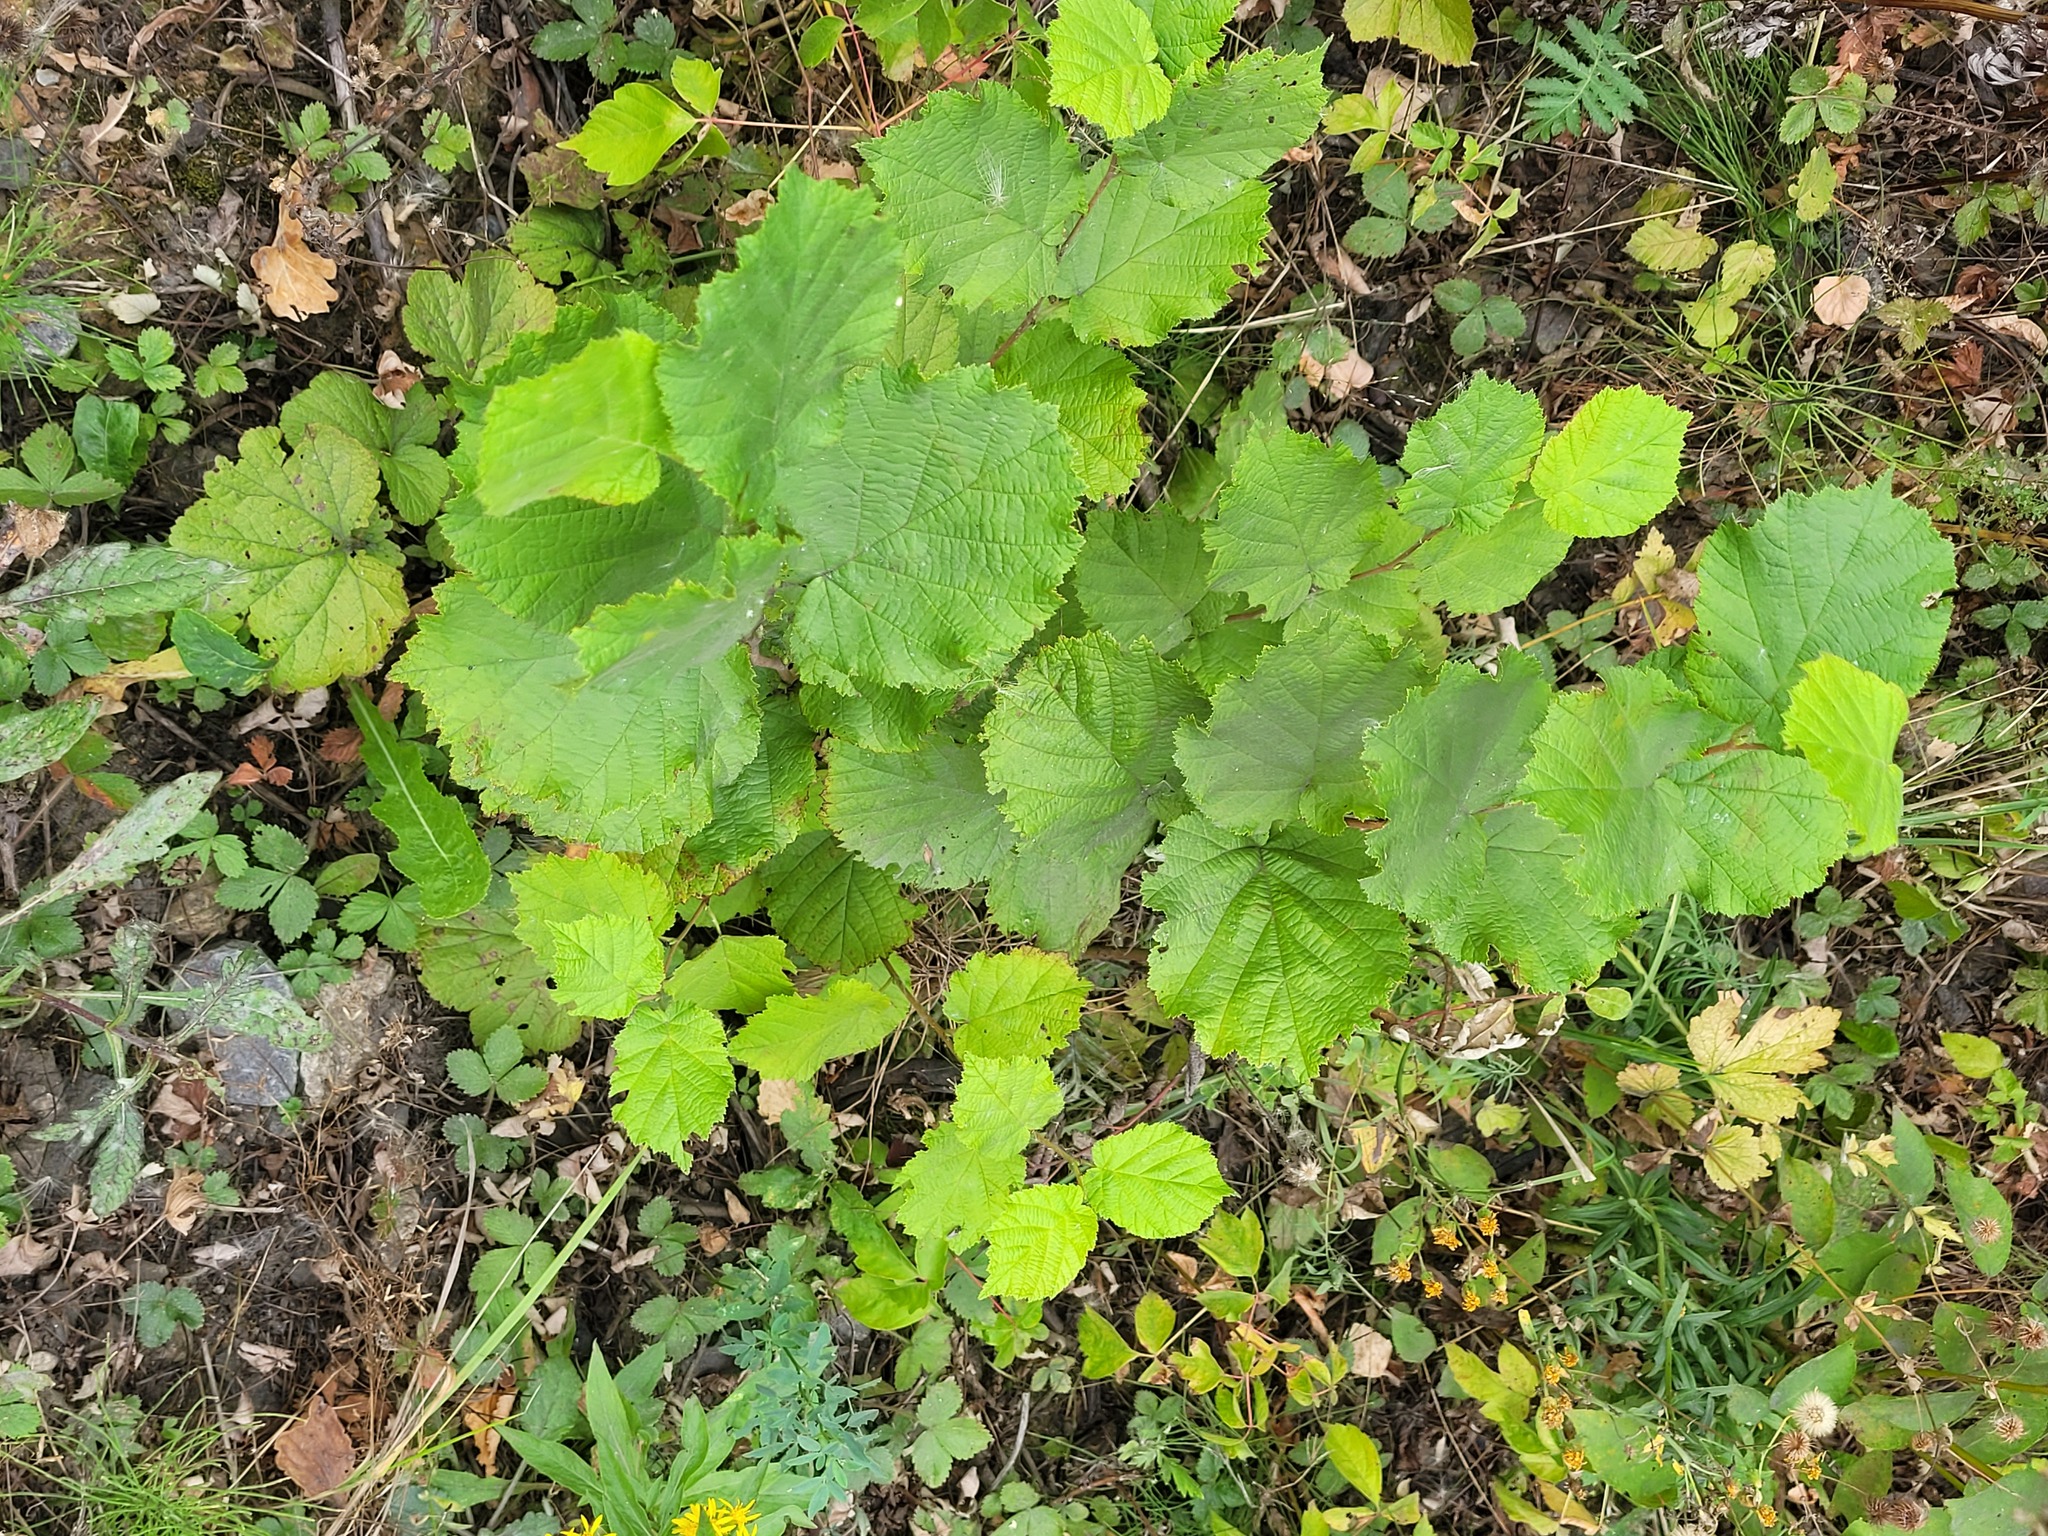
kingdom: Plantae
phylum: Tracheophyta
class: Magnoliopsida
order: Fagales
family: Betulaceae
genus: Corylus
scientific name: Corylus avellana
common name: European hazel
